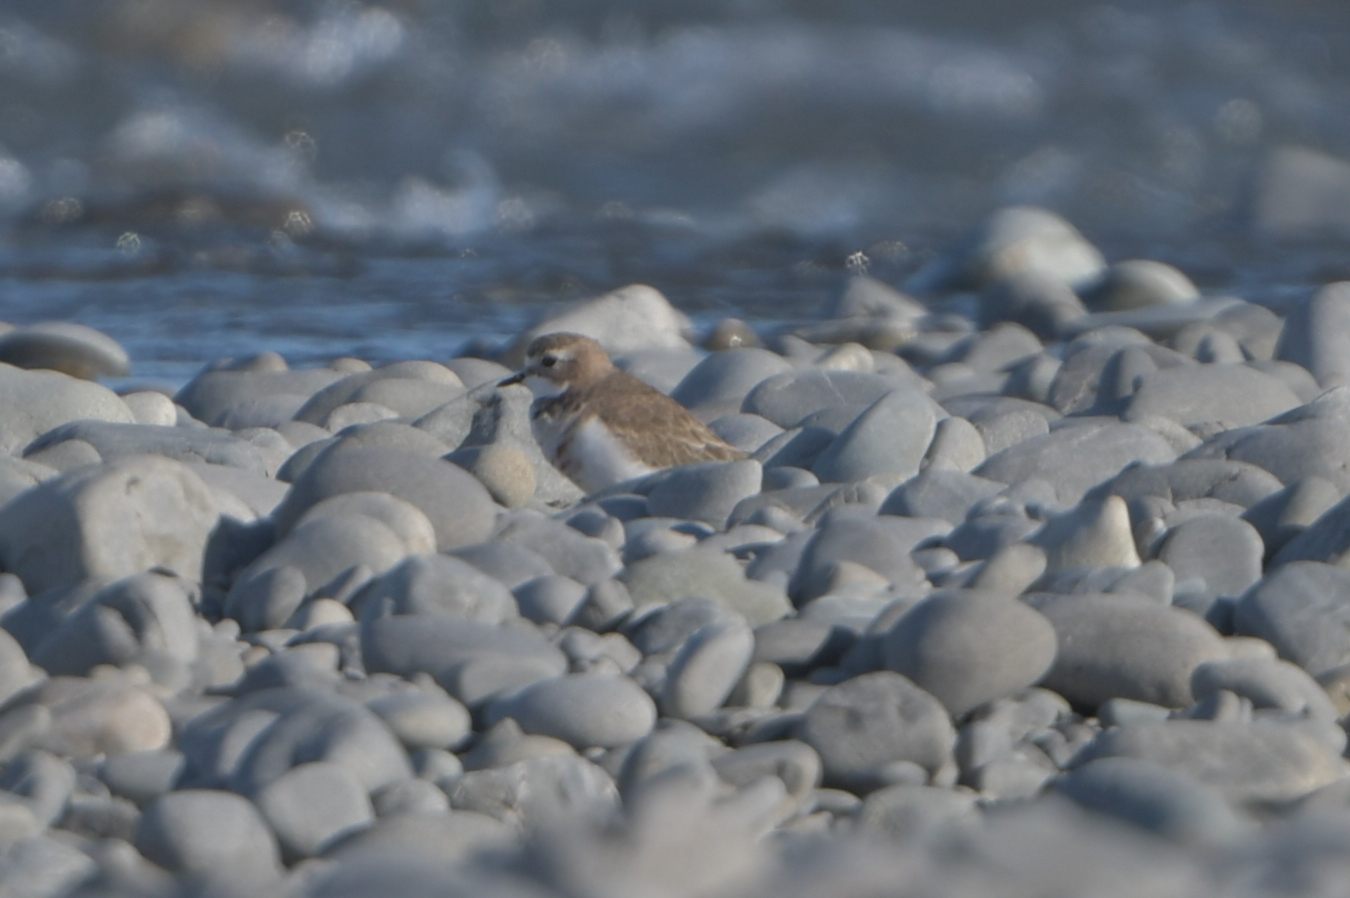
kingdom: Animalia
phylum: Chordata
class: Aves
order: Charadriiformes
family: Charadriidae
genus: Anarhynchus
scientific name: Anarhynchus
